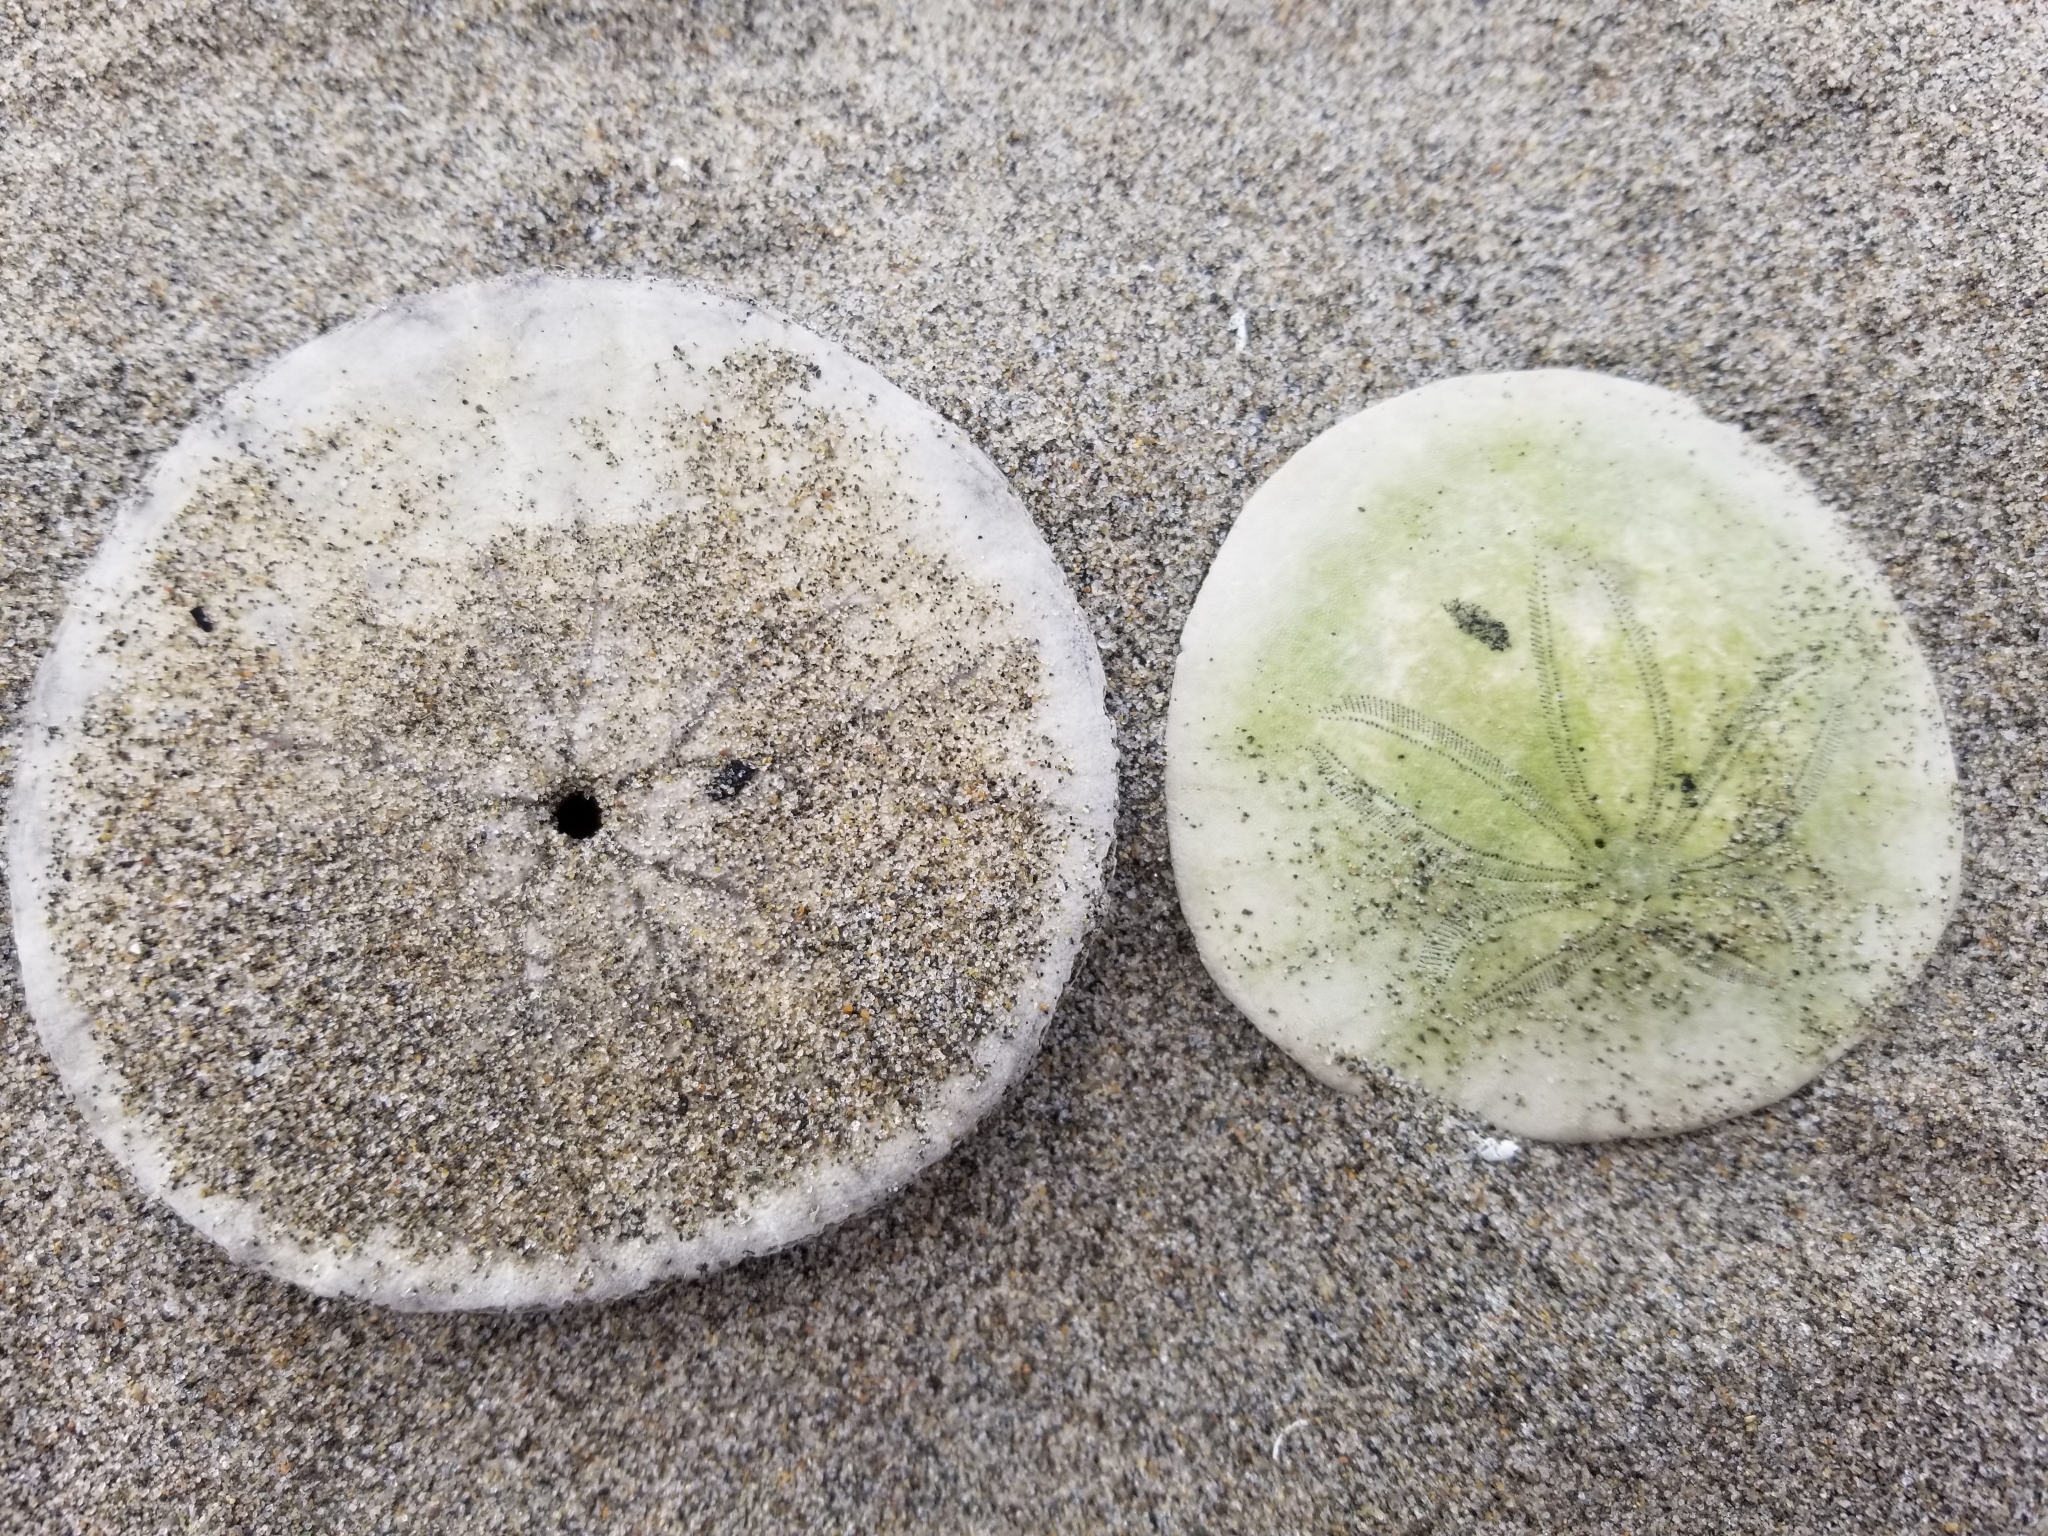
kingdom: Animalia
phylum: Echinodermata
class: Echinoidea
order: Echinolampadacea
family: Dendrasteridae
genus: Dendraster
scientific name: Dendraster excentricus
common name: Eccentric sand dollar sea urchin
